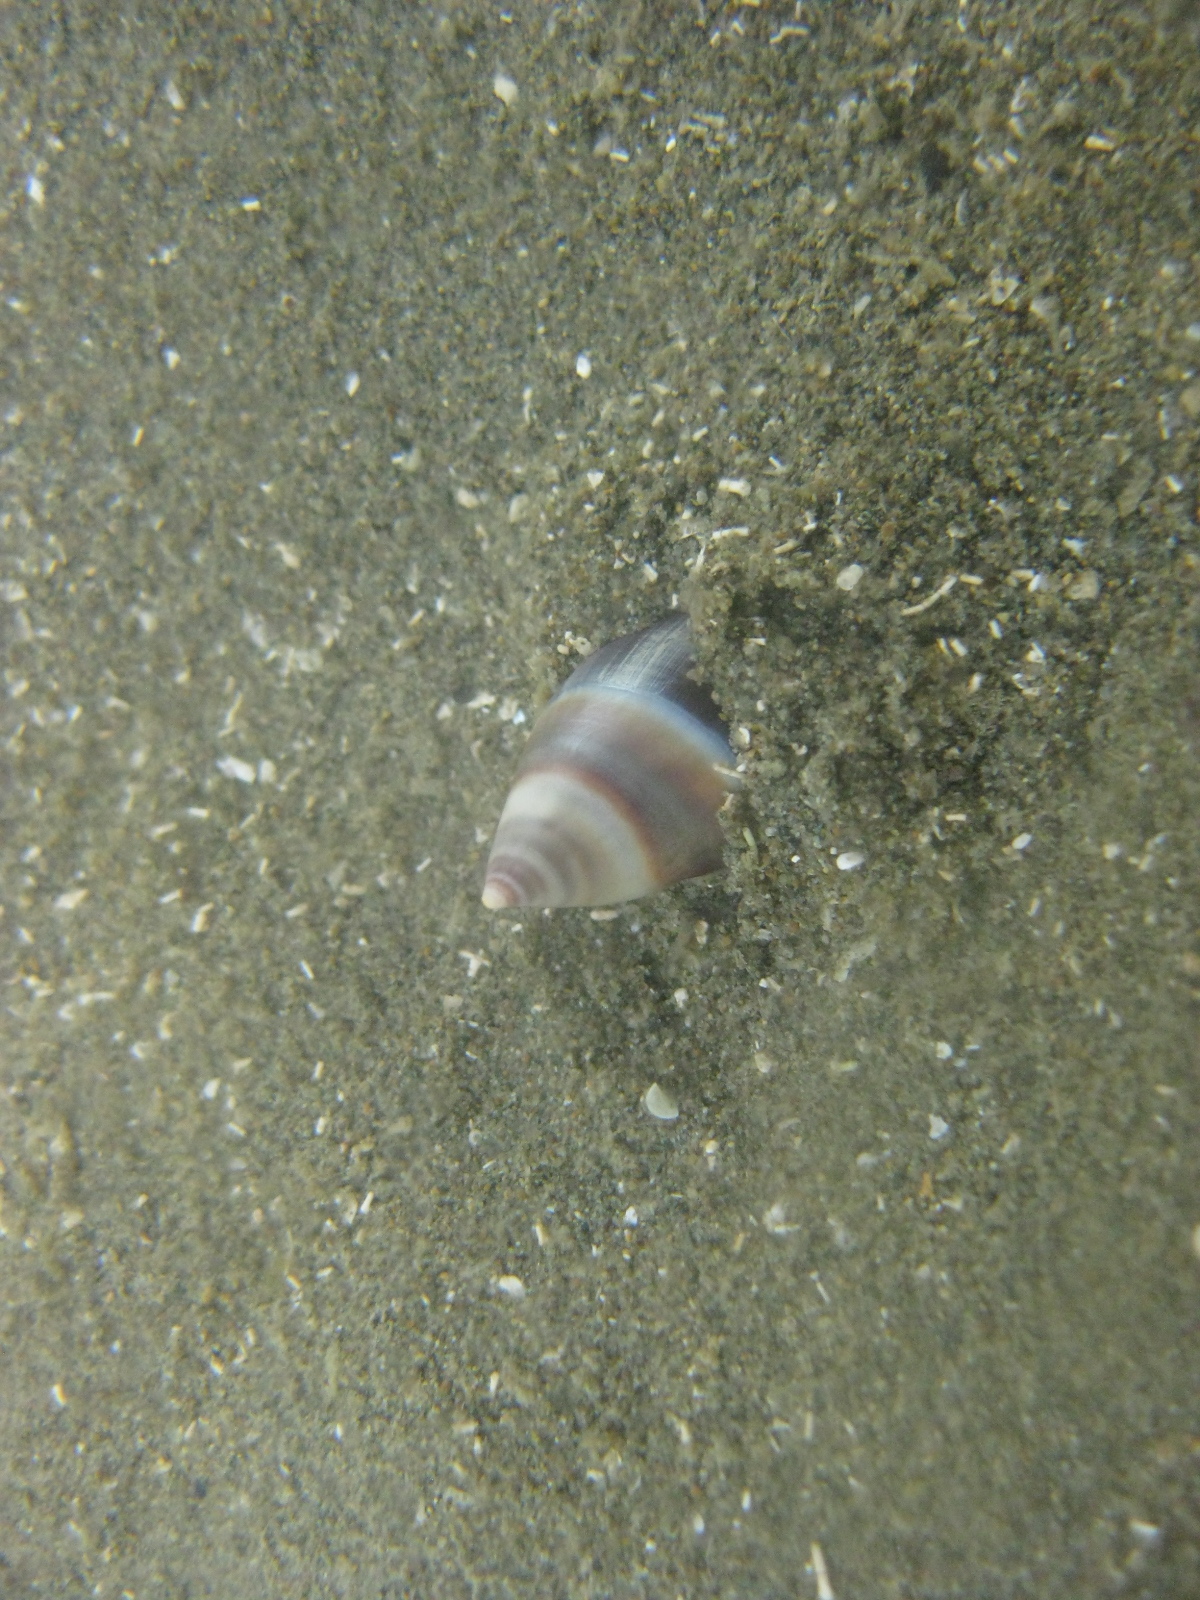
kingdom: Animalia
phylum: Mollusca
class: Gastropoda
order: Neogastropoda
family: Ancillariidae
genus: Amalda
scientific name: Amalda australis
